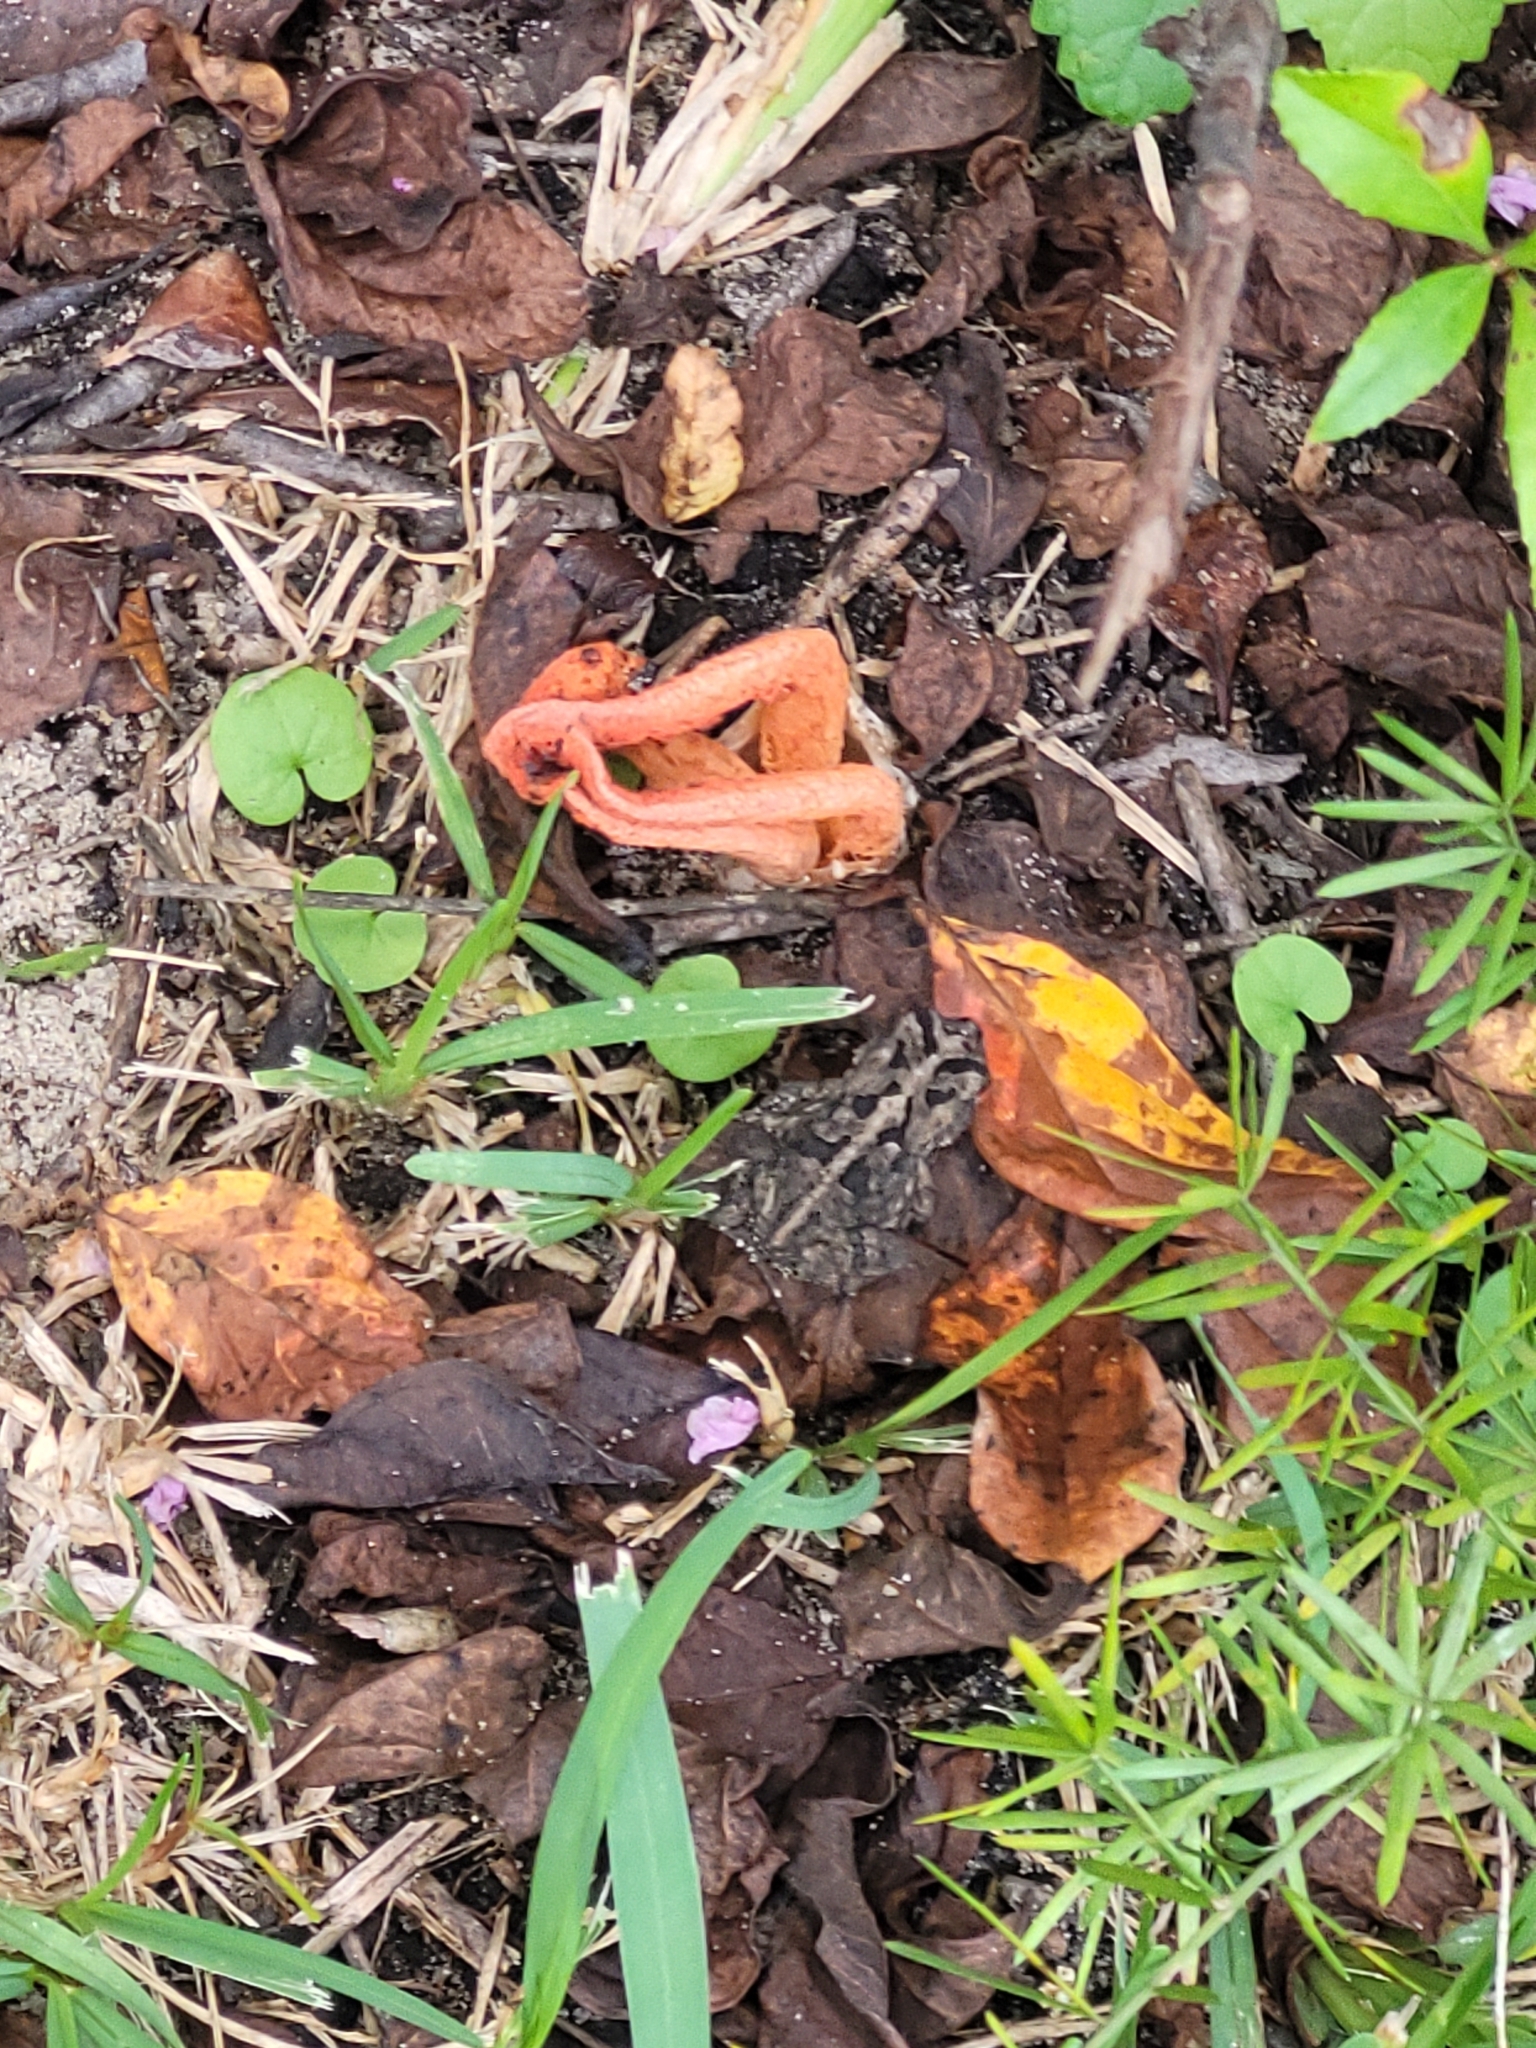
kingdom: Animalia
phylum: Chordata
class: Amphibia
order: Anura
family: Bufonidae
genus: Anaxyrus
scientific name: Anaxyrus terrestris
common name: Southern toad
